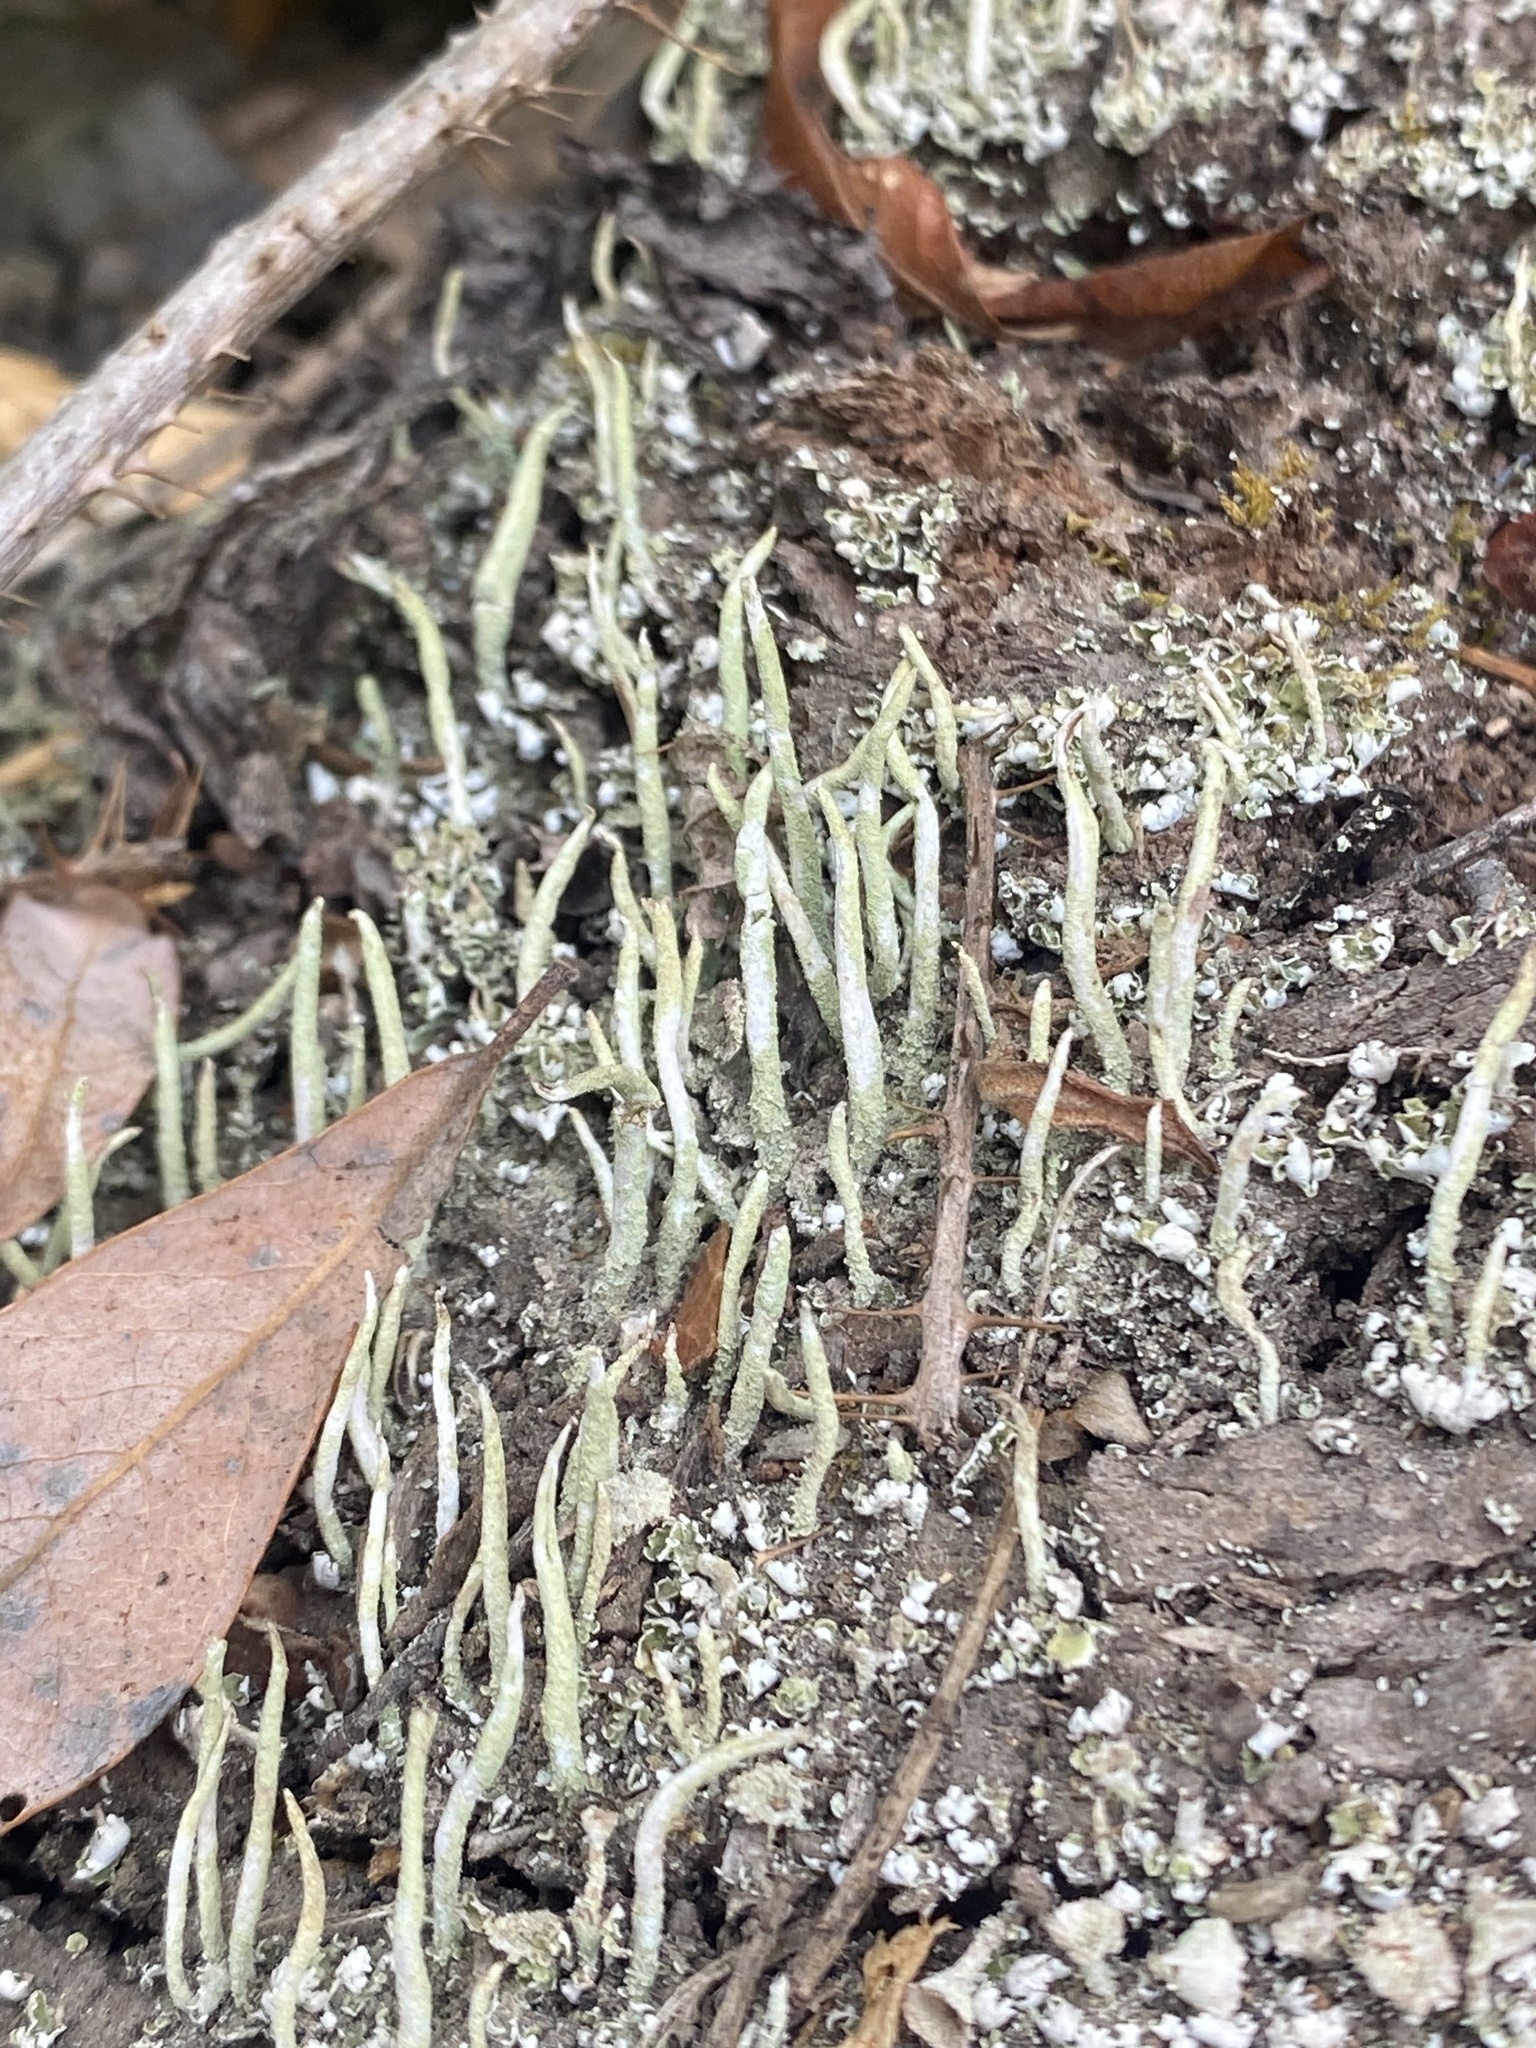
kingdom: Fungi
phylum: Ascomycota
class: Lecanoromycetes
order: Lecanorales
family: Cladoniaceae
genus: Cladonia
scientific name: Cladonia coniocraea
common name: Common powderhorn
